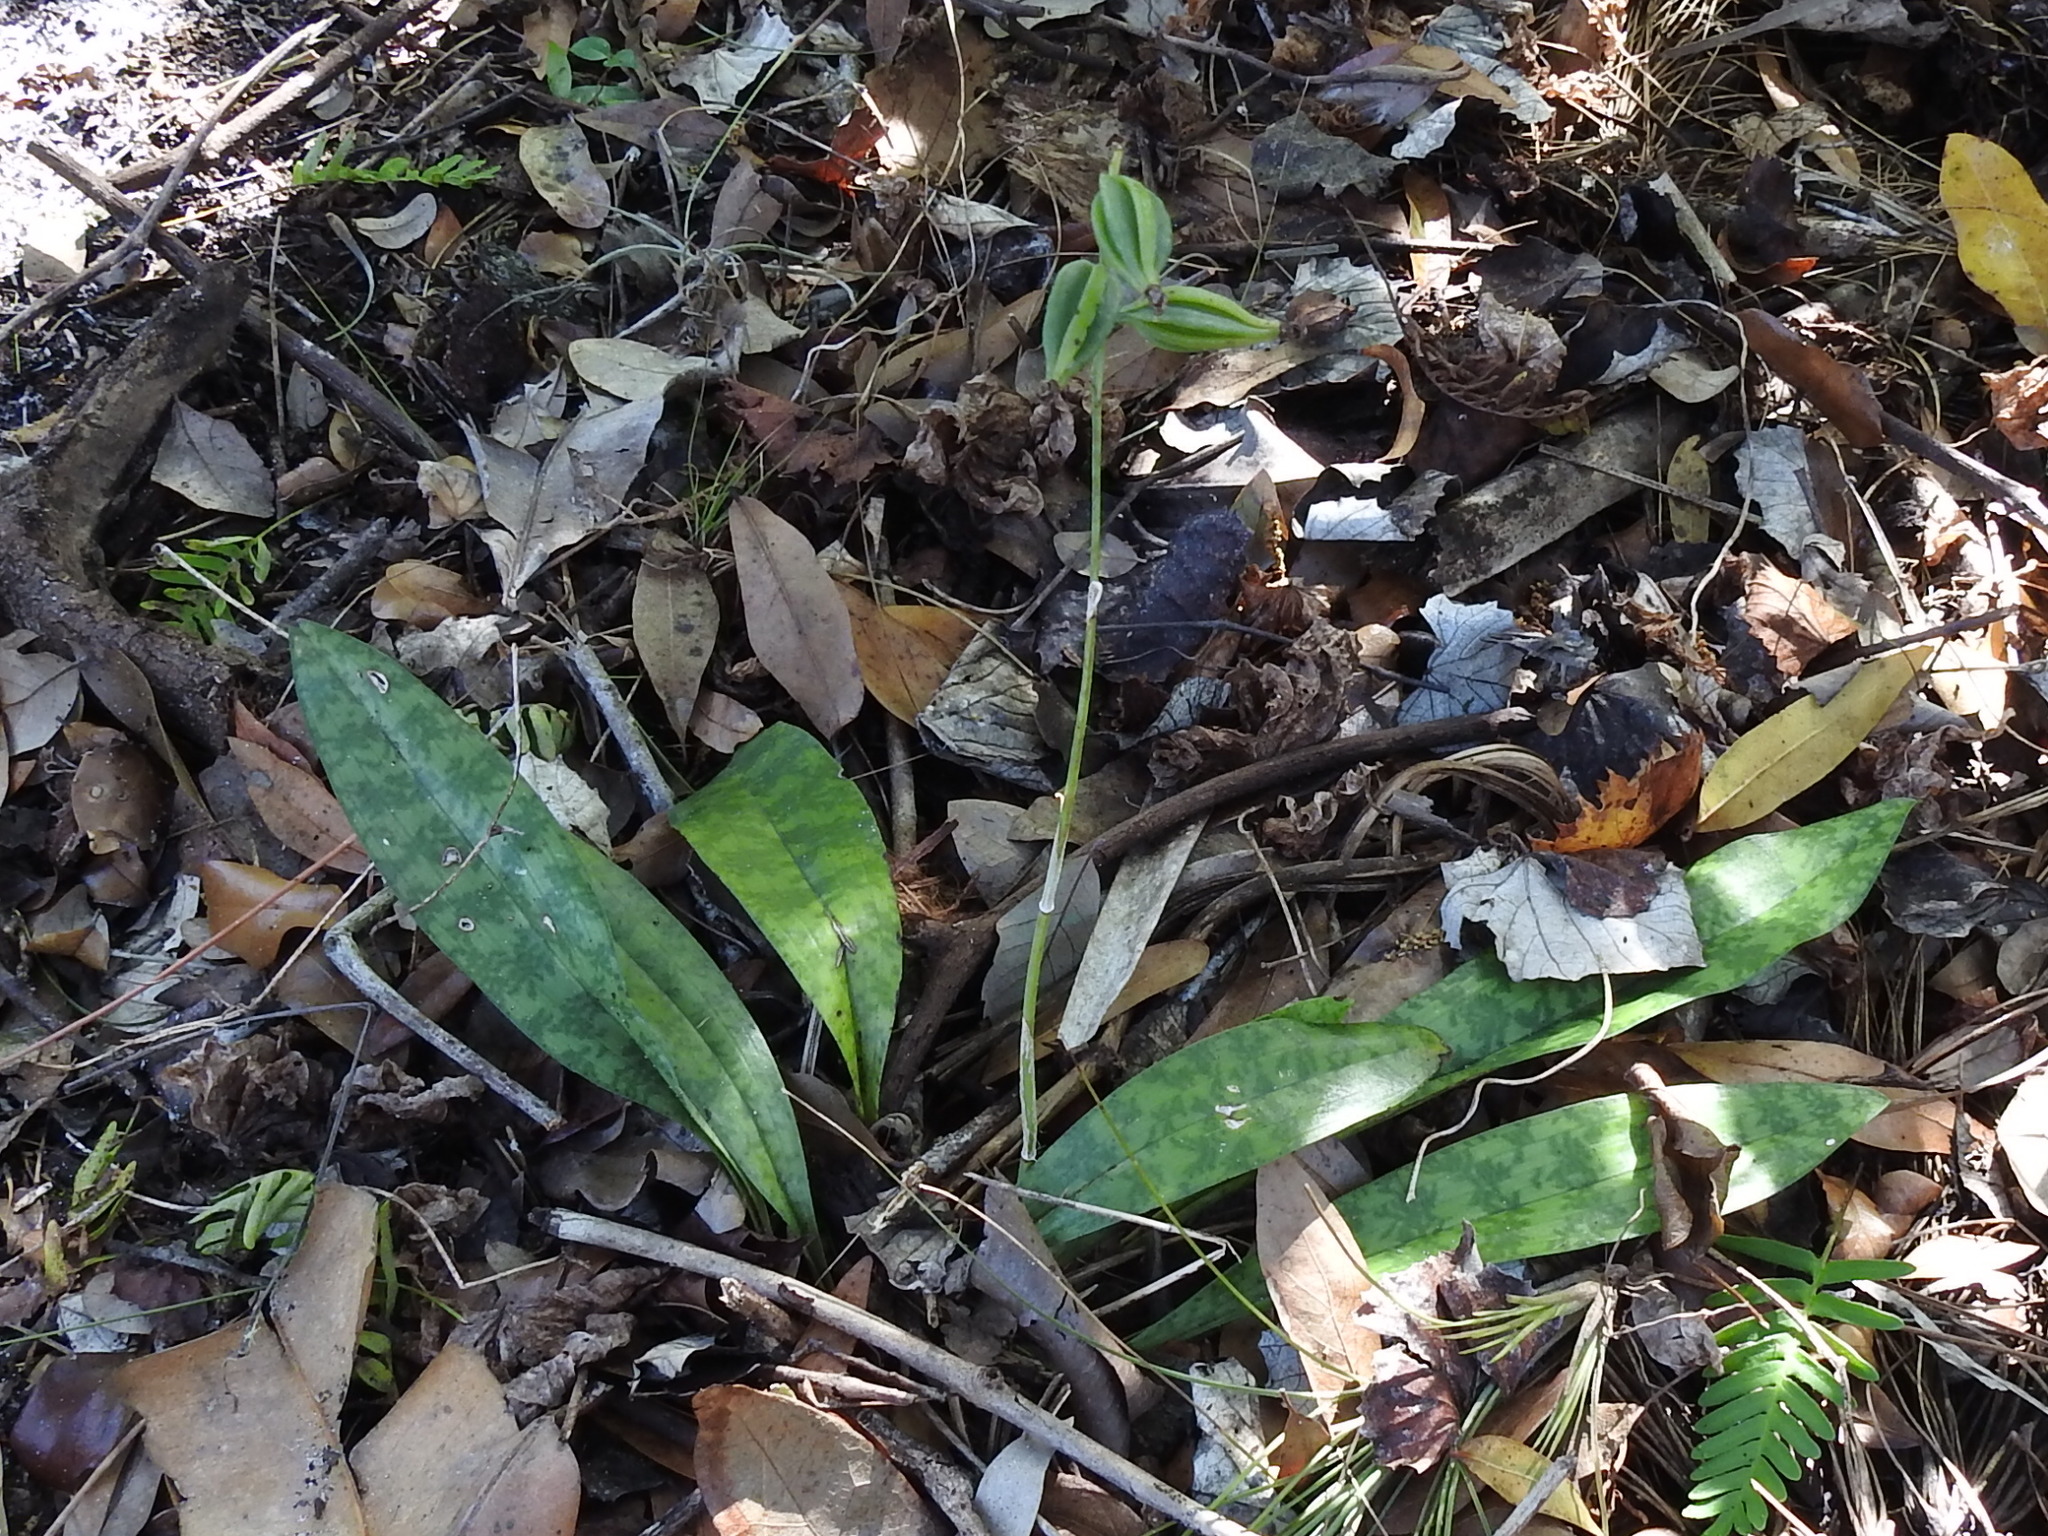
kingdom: Plantae
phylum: Tracheophyta
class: Liliopsida
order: Asparagales
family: Orchidaceae
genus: Eulophia
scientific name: Eulophia maculata
